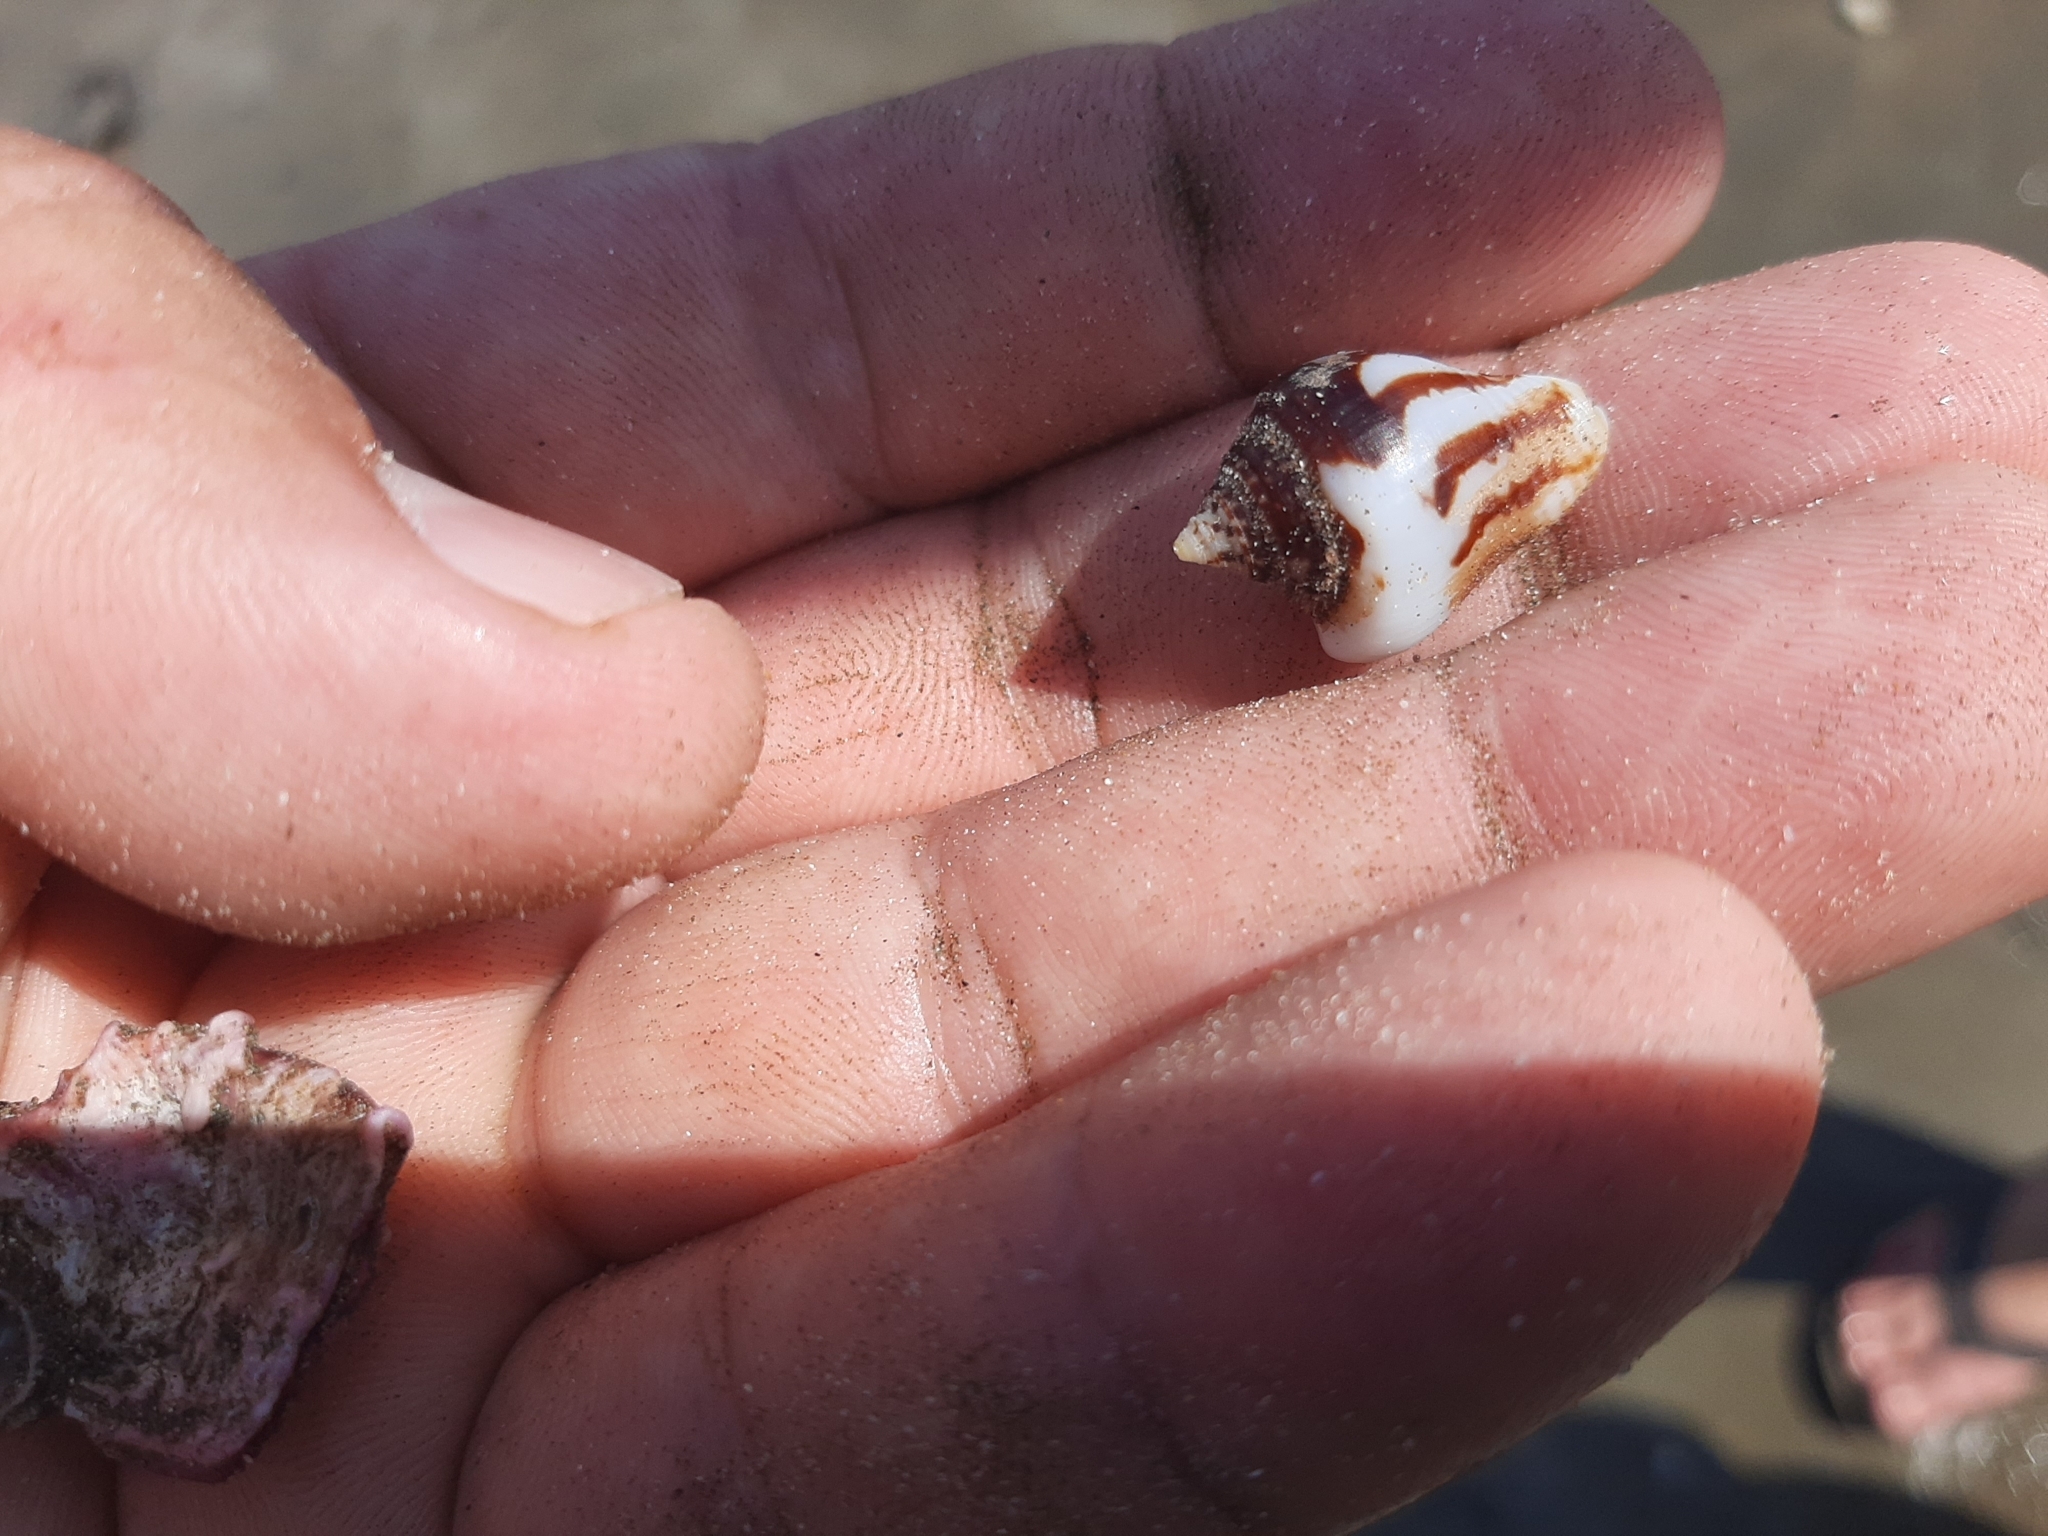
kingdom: Animalia
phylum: Mollusca
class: Gastropoda
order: Neogastropoda
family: Columbellidae
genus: Columbella
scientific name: Columbella strombiformis
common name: Stromboid dove shell
